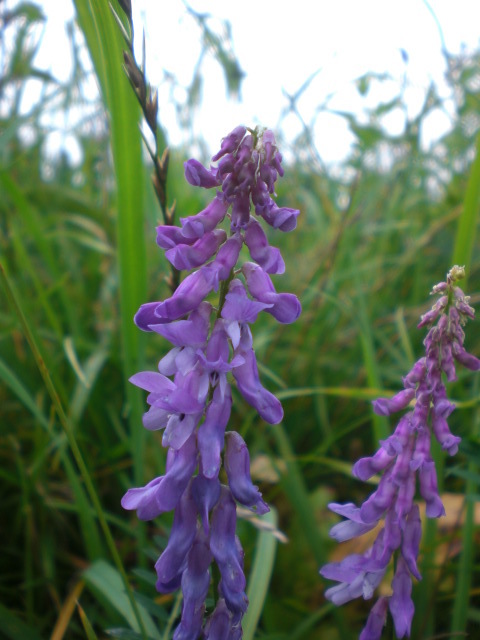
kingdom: Plantae
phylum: Tracheophyta
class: Magnoliopsida
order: Fabales
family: Fabaceae
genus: Vicia
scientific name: Vicia cracca
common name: Bird vetch
